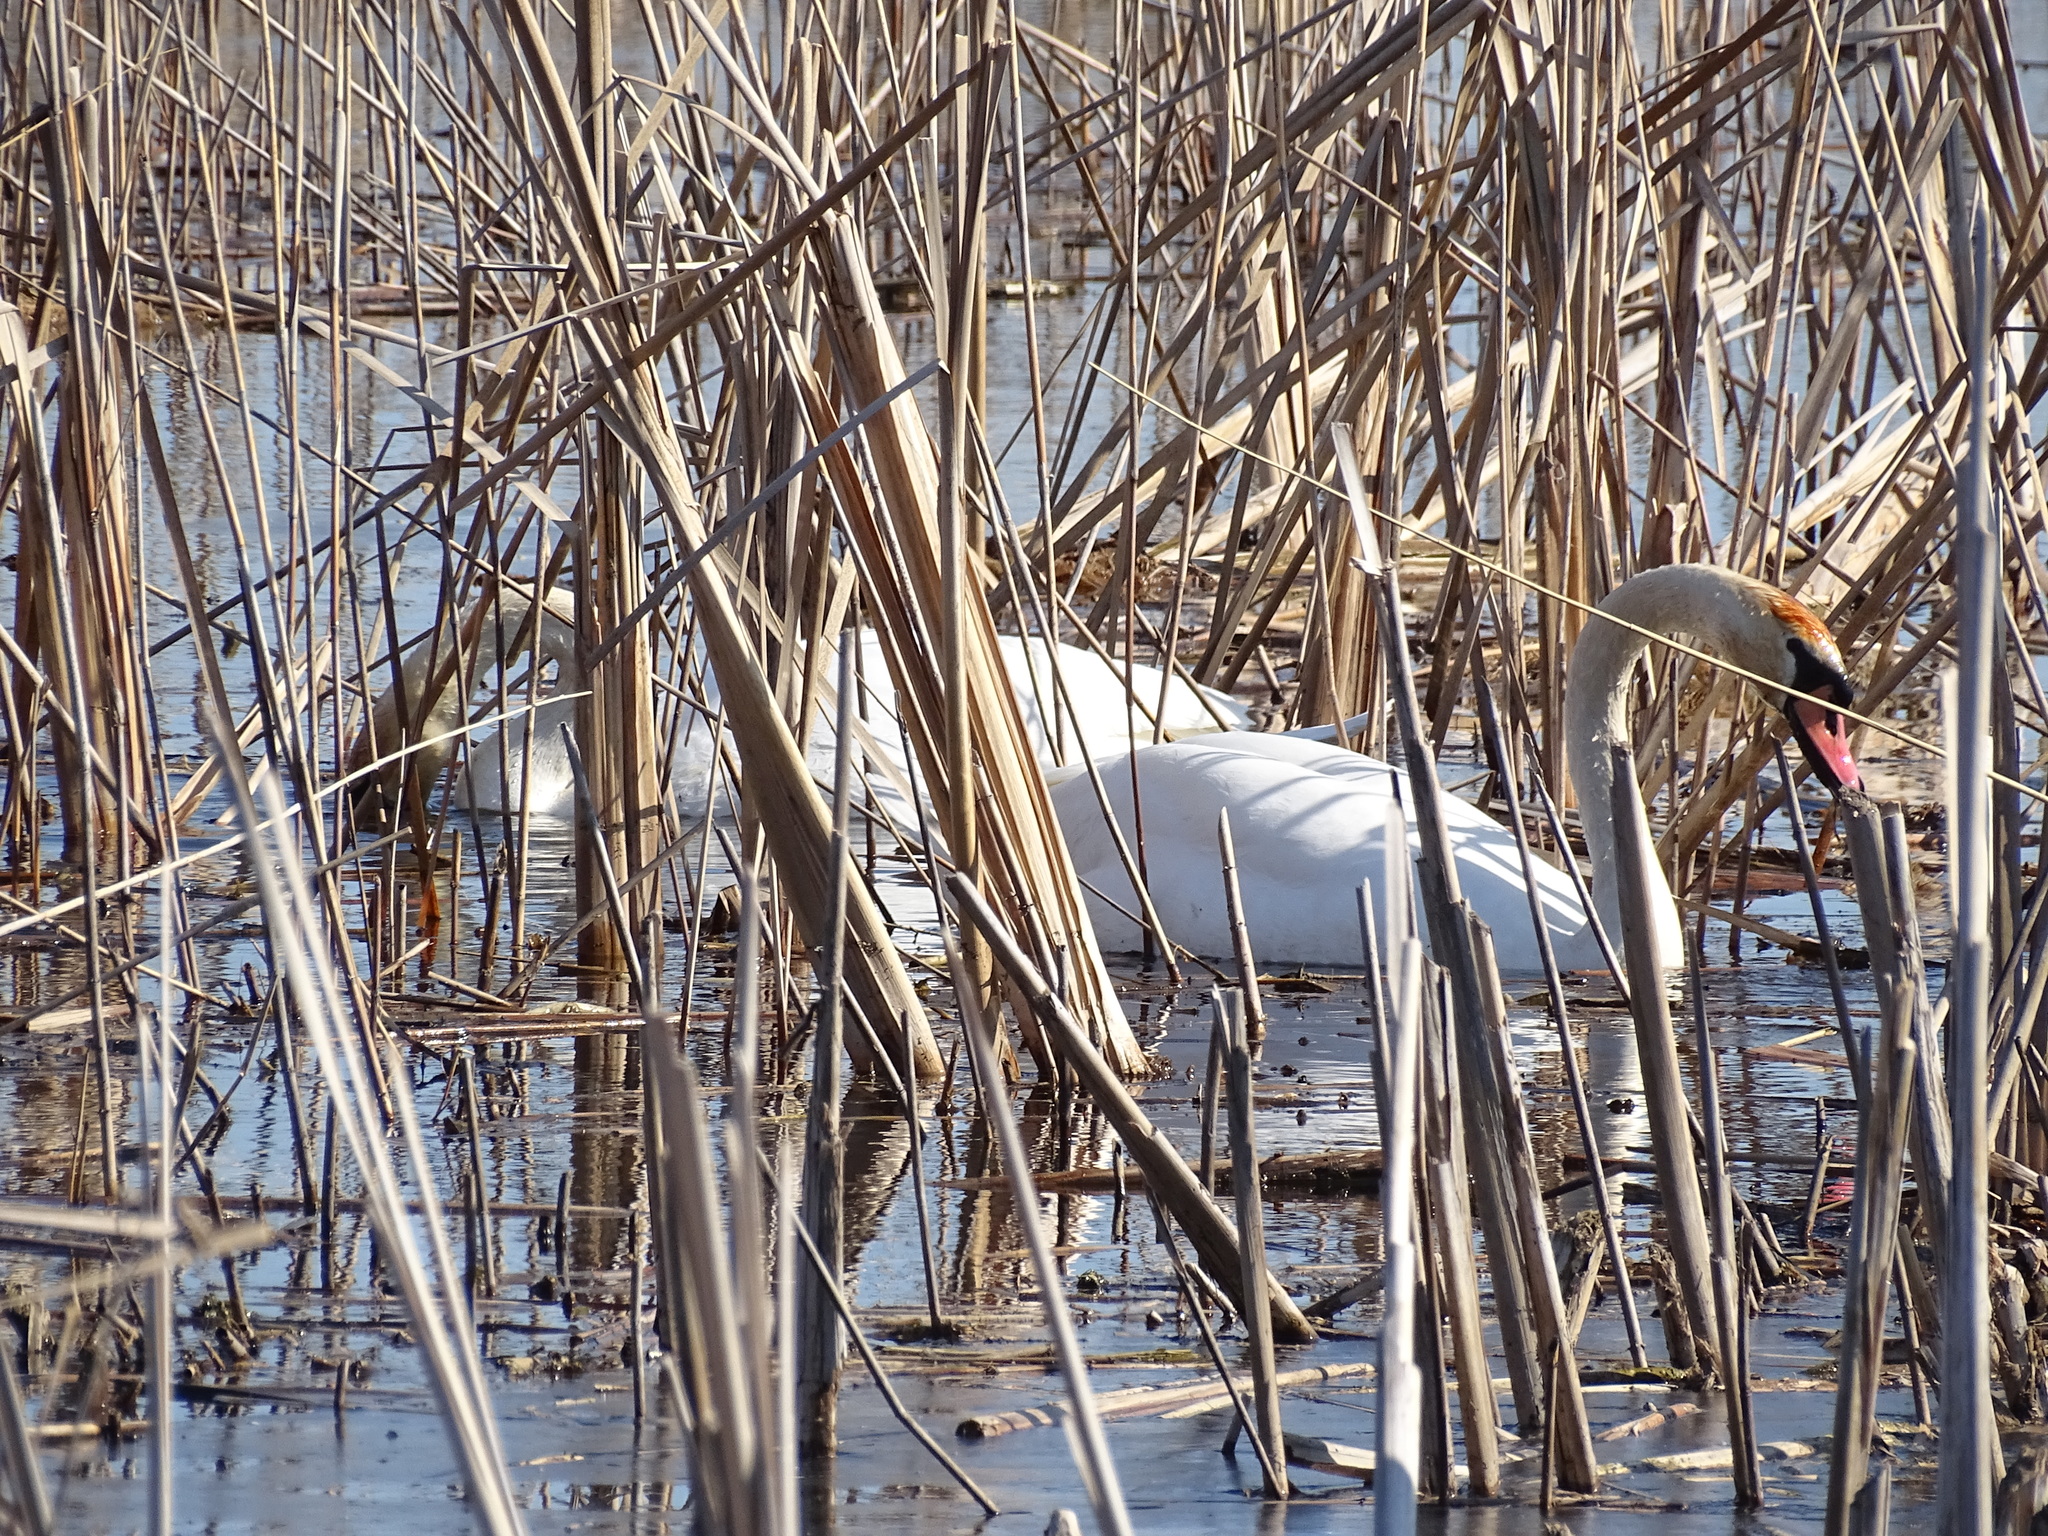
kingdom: Animalia
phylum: Chordata
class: Aves
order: Anseriformes
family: Anatidae
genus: Cygnus
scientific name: Cygnus olor
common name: Mute swan
